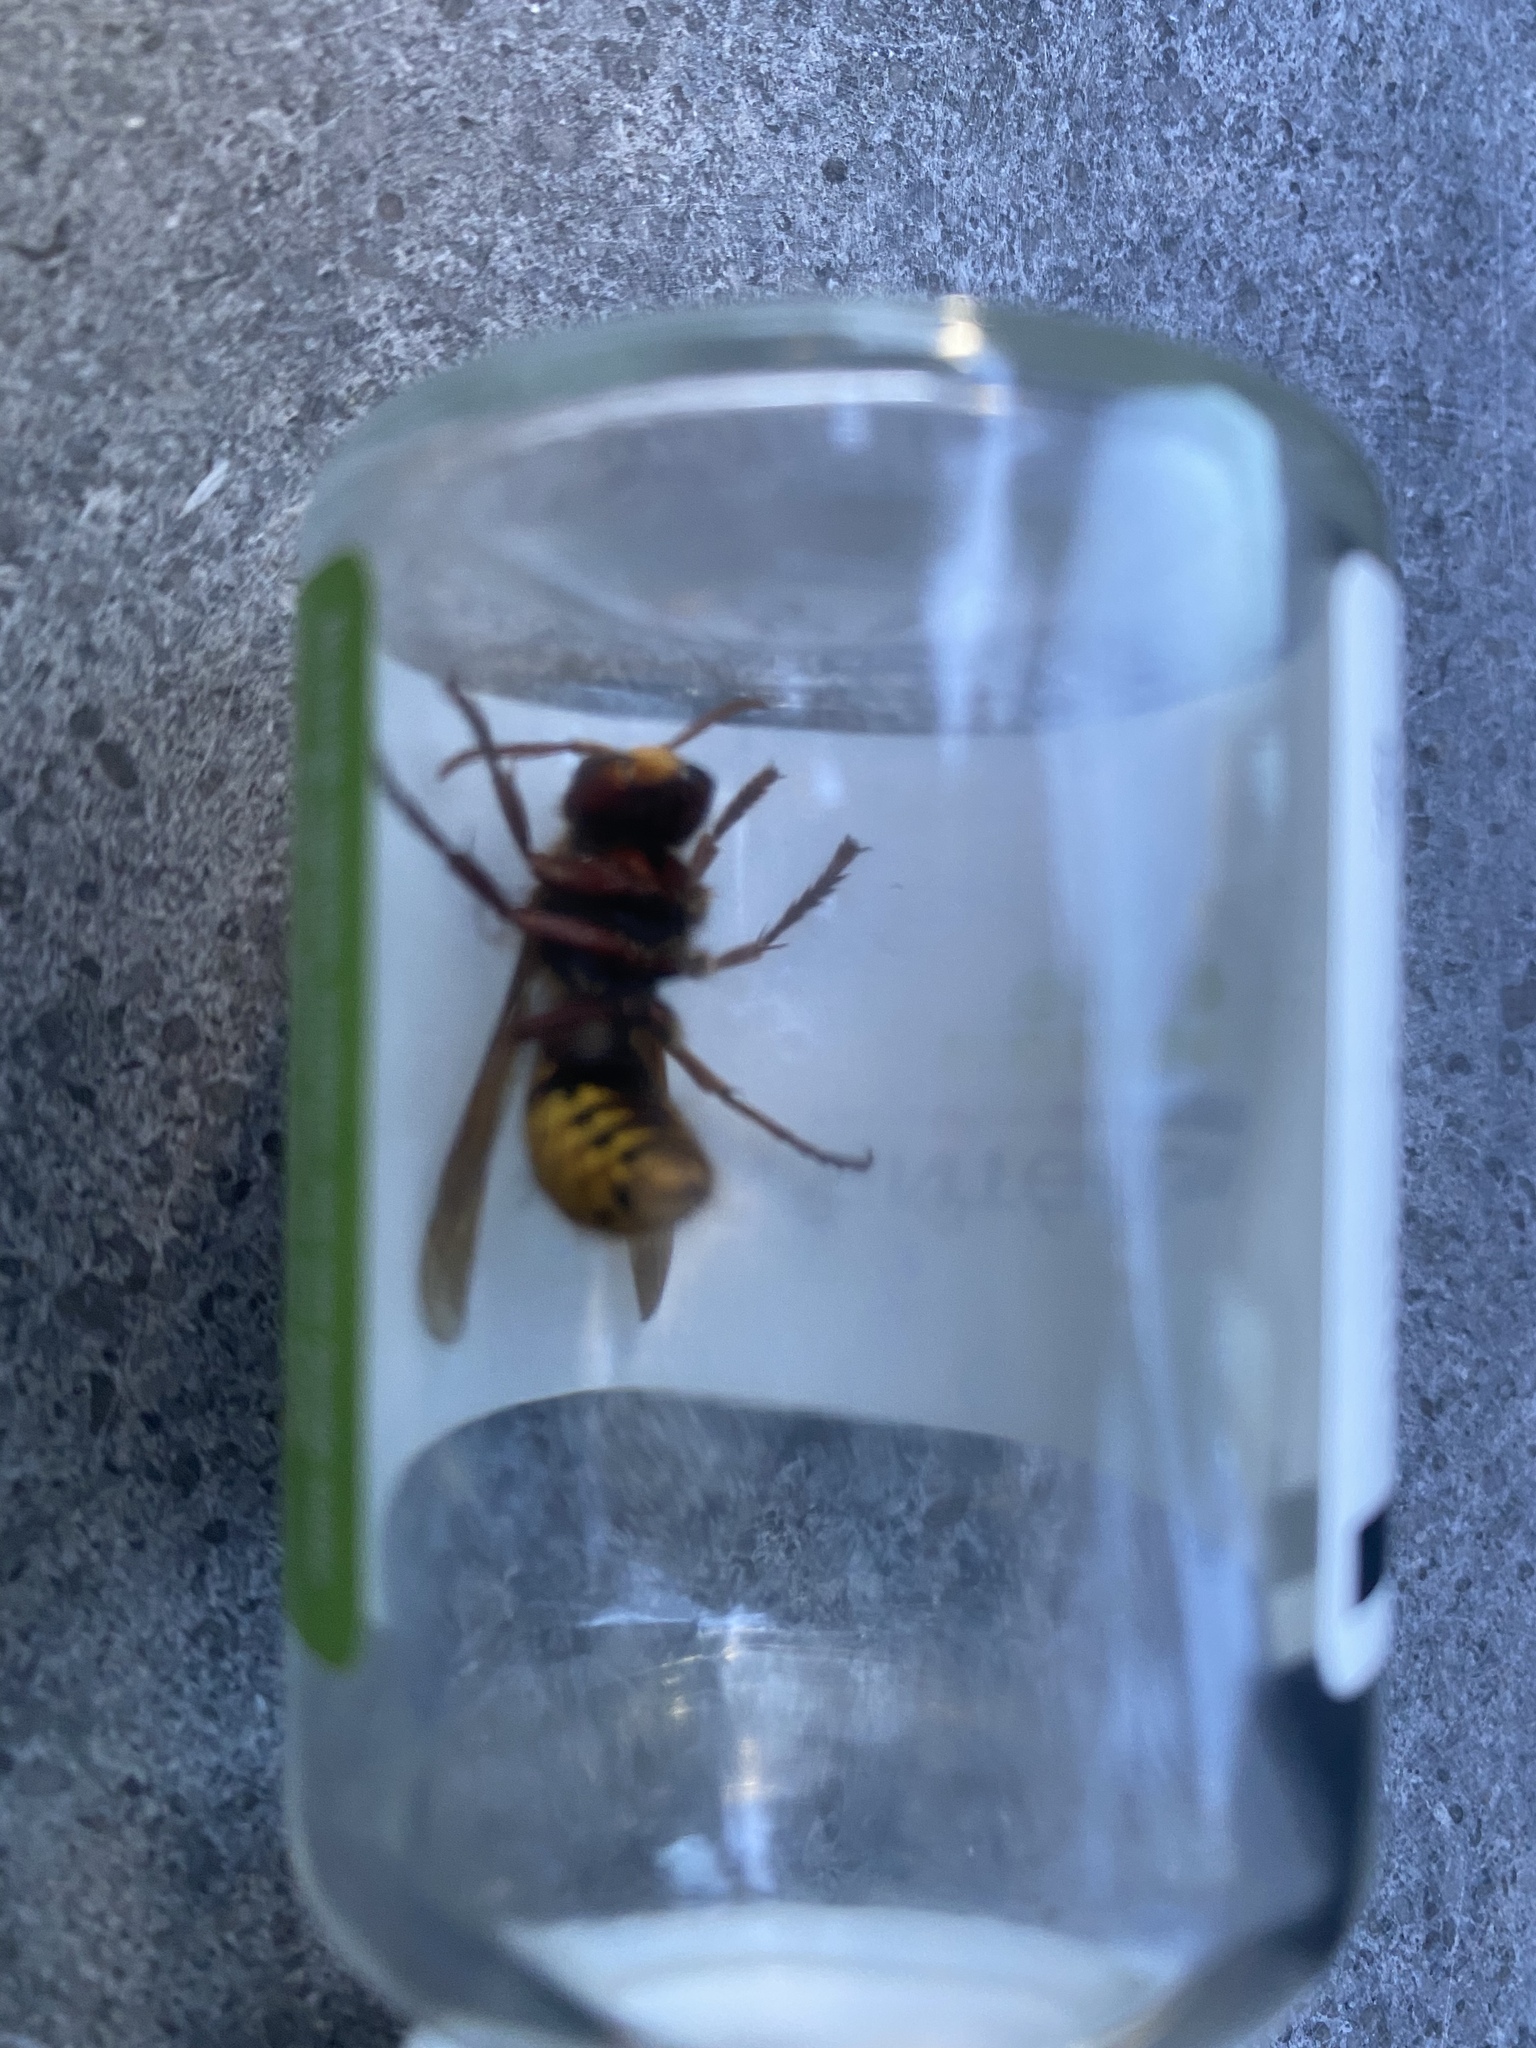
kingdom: Animalia
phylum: Arthropoda
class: Insecta
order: Hymenoptera
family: Vespidae
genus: Vespa
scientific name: Vespa crabro
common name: Hornet
